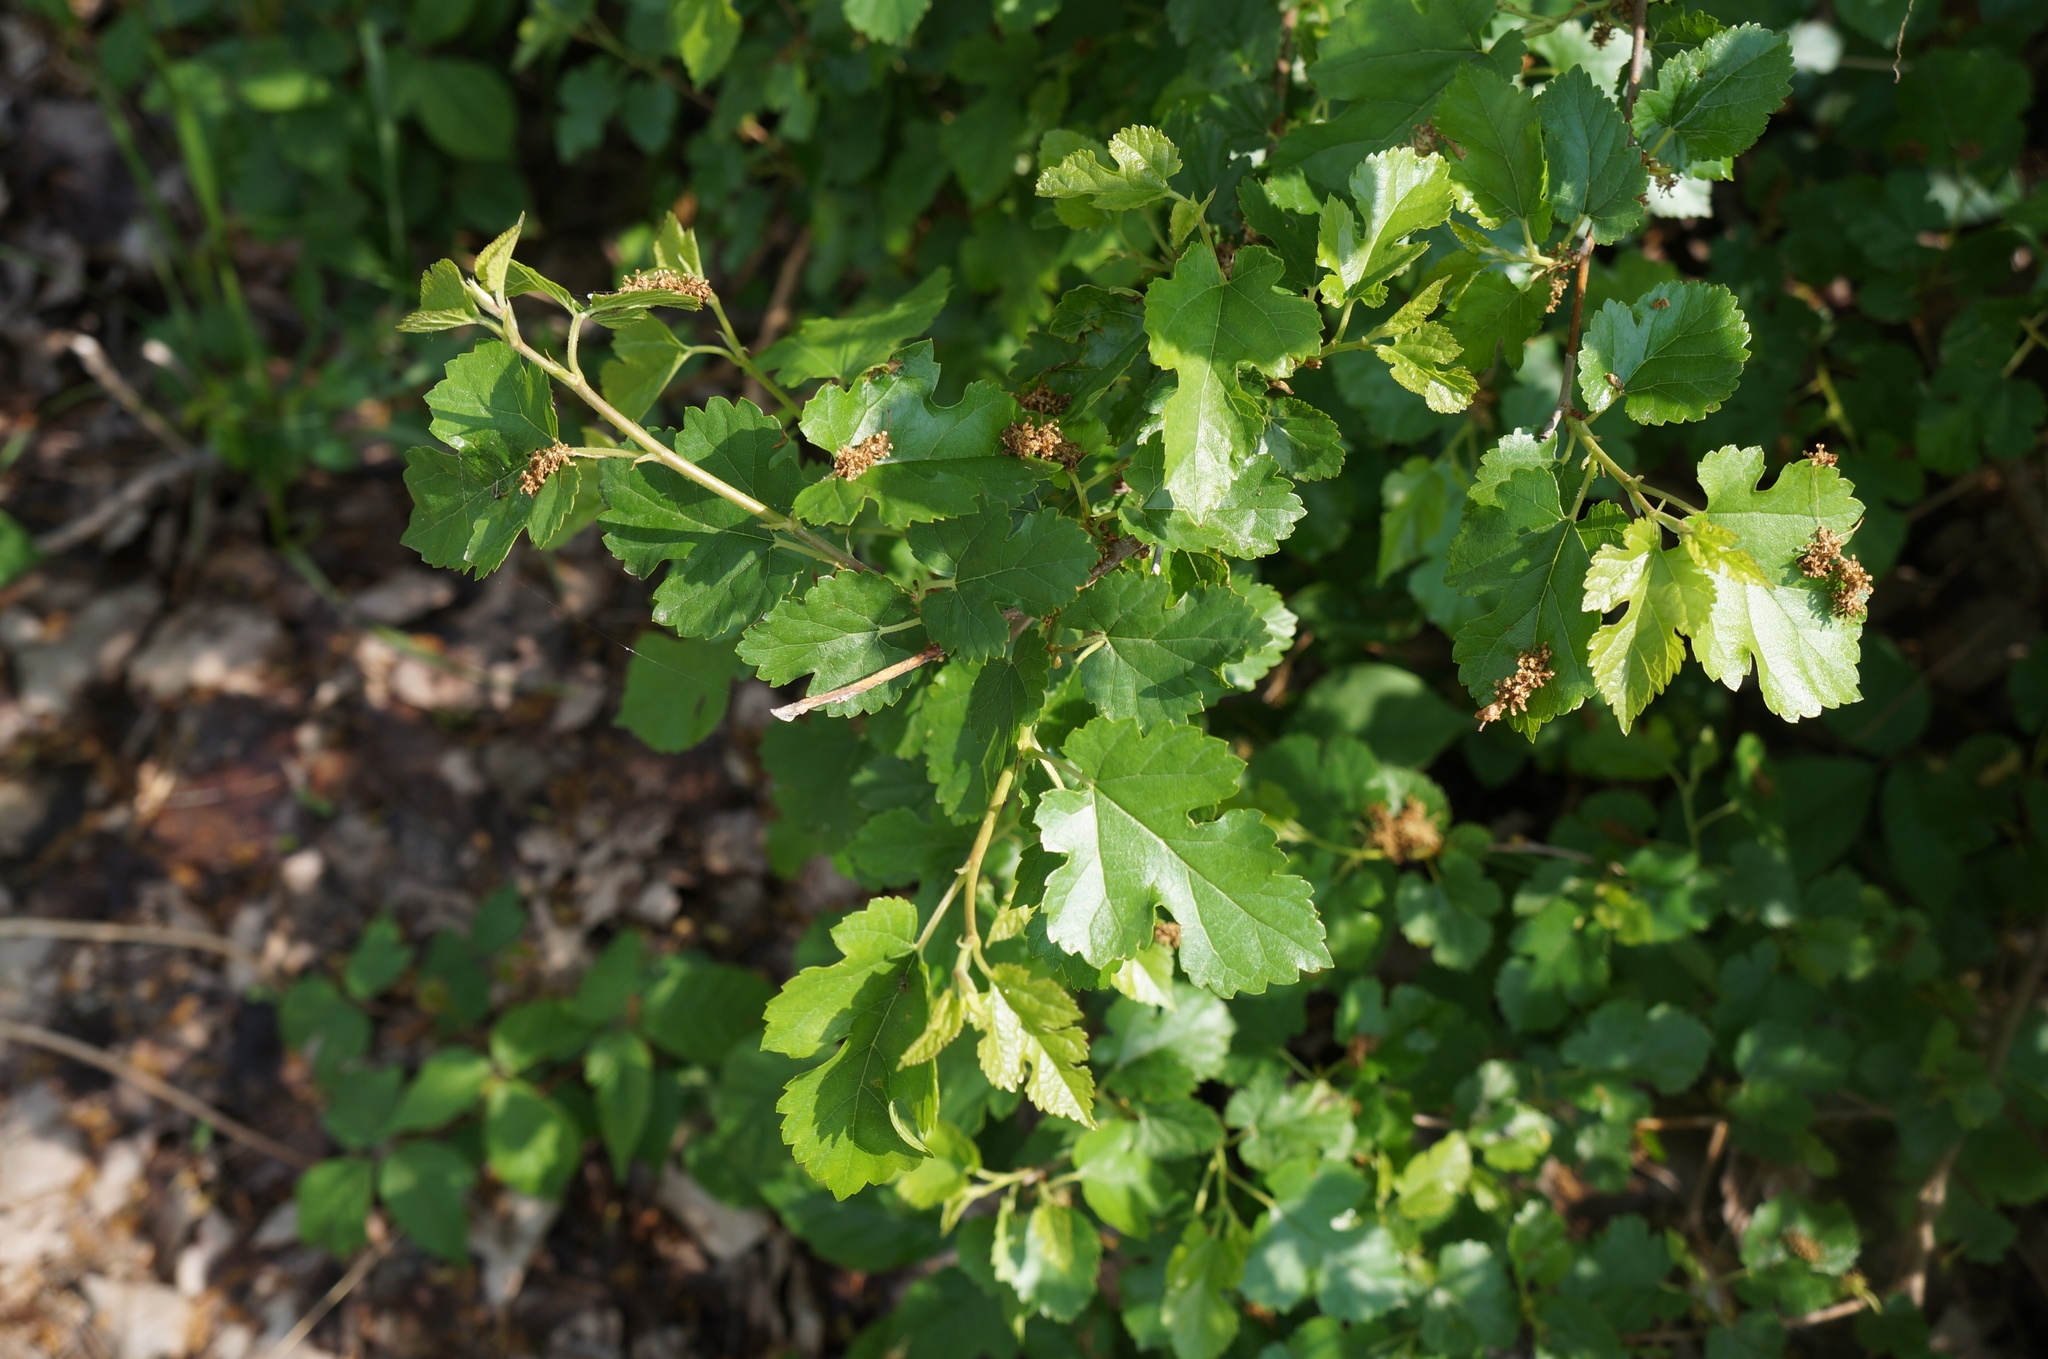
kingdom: Plantae
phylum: Tracheophyta
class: Magnoliopsida
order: Rosales
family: Moraceae
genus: Morus
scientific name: Morus alba
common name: White mulberry
